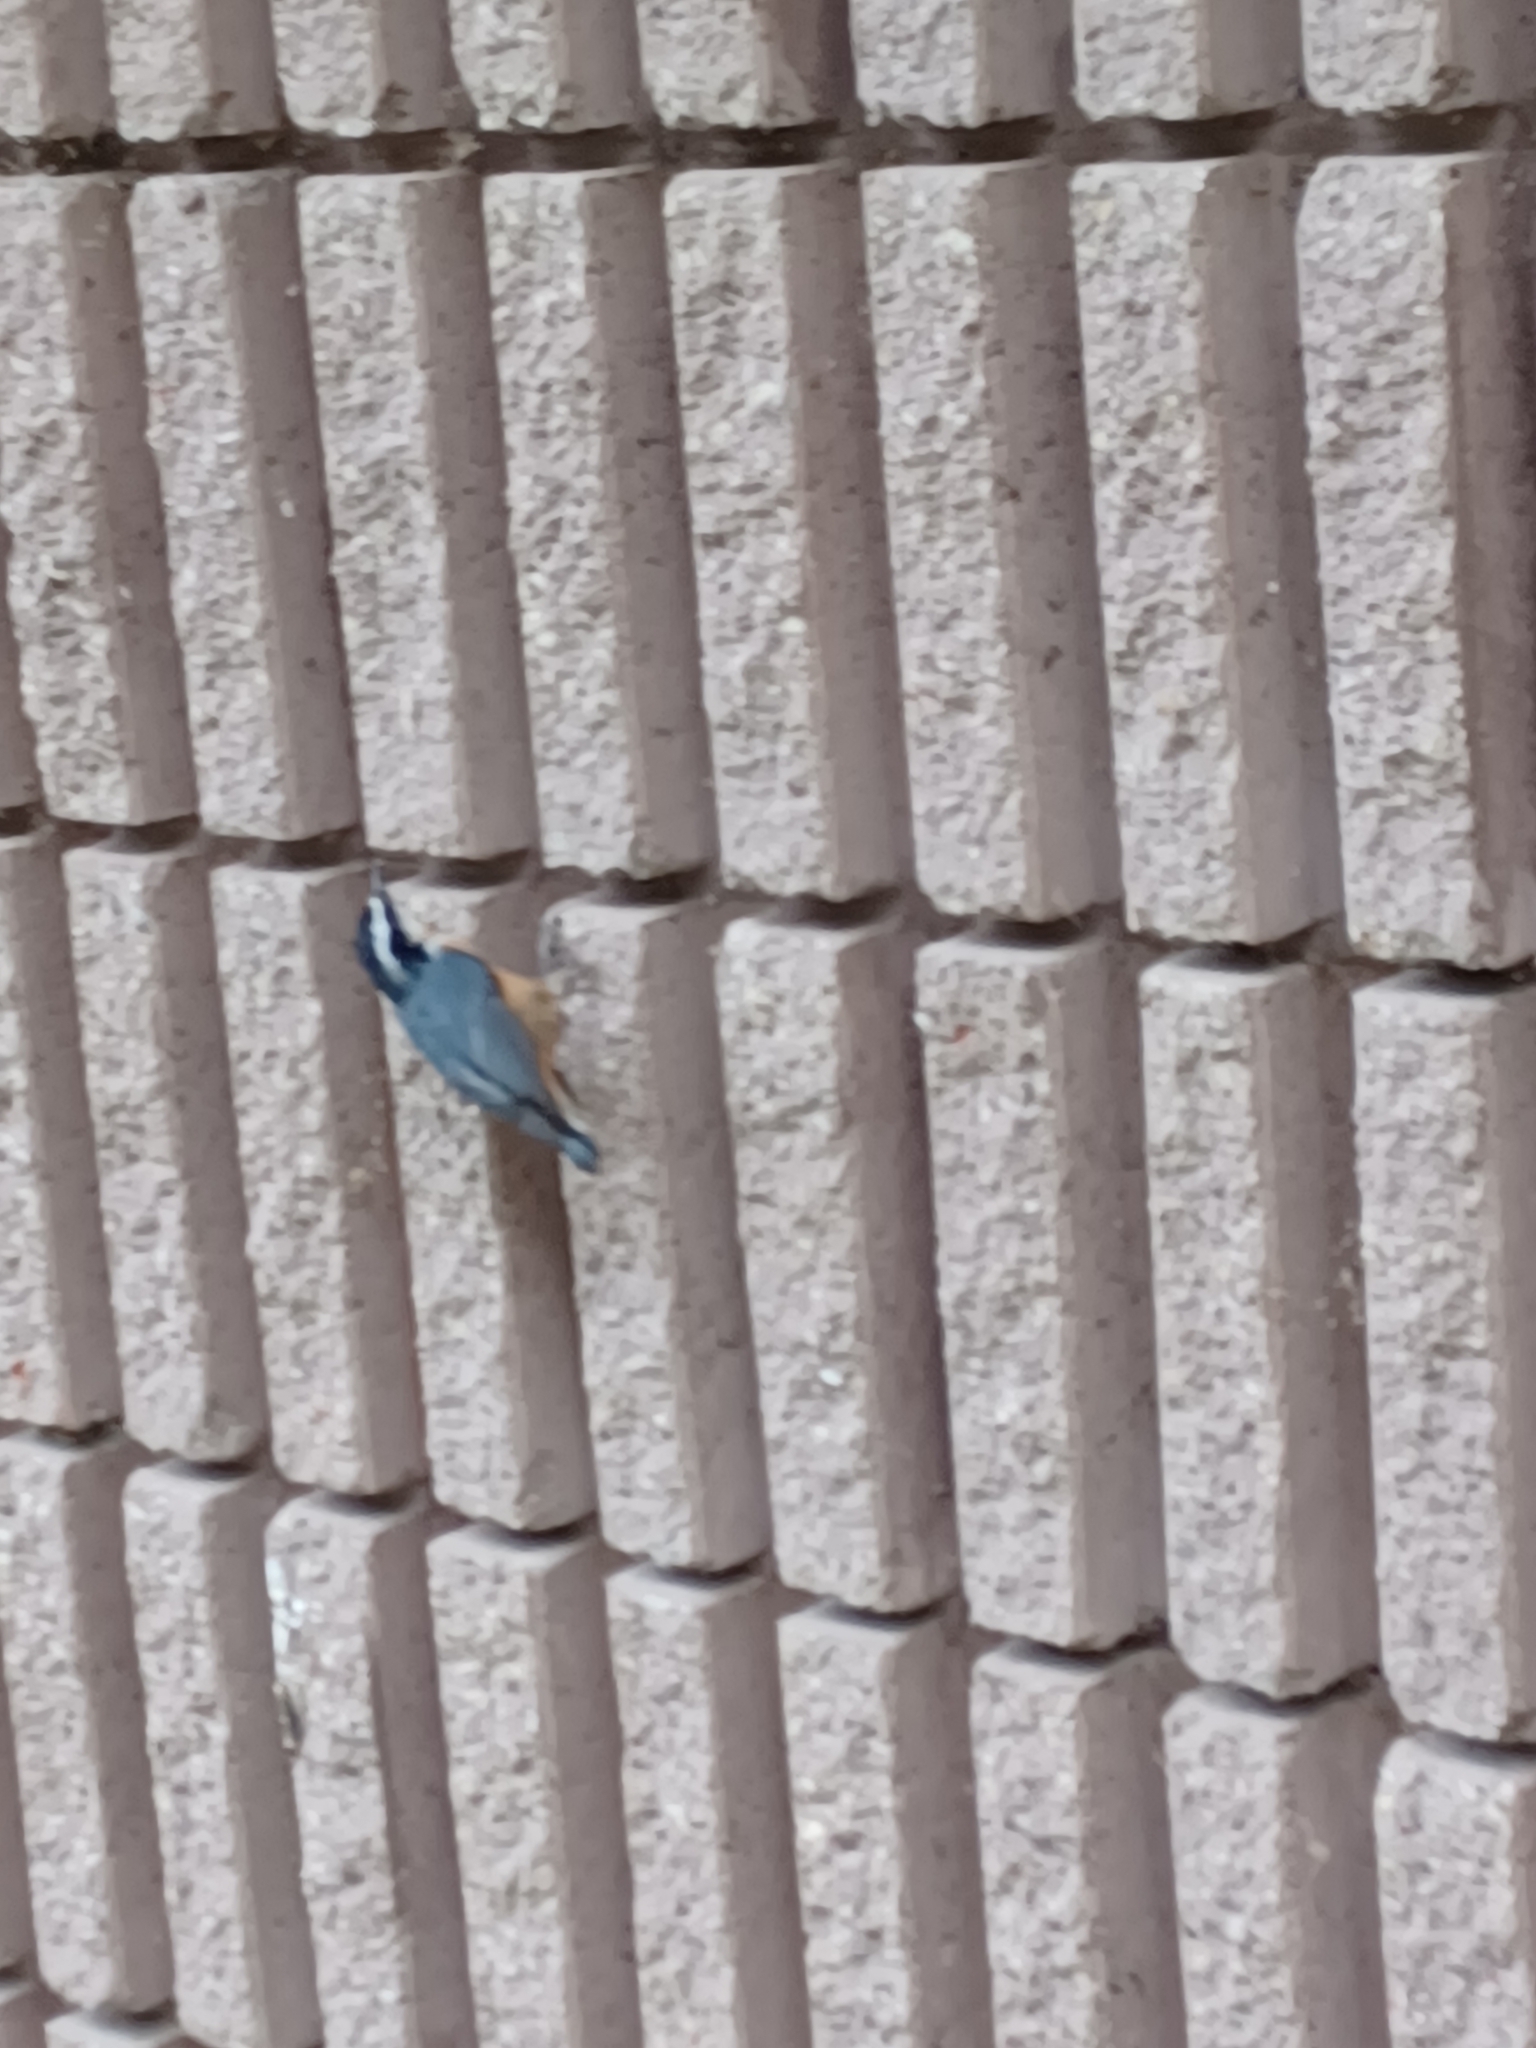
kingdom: Animalia
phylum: Chordata
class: Aves
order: Passeriformes
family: Sittidae
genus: Sitta
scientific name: Sitta canadensis
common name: Red-breasted nuthatch
